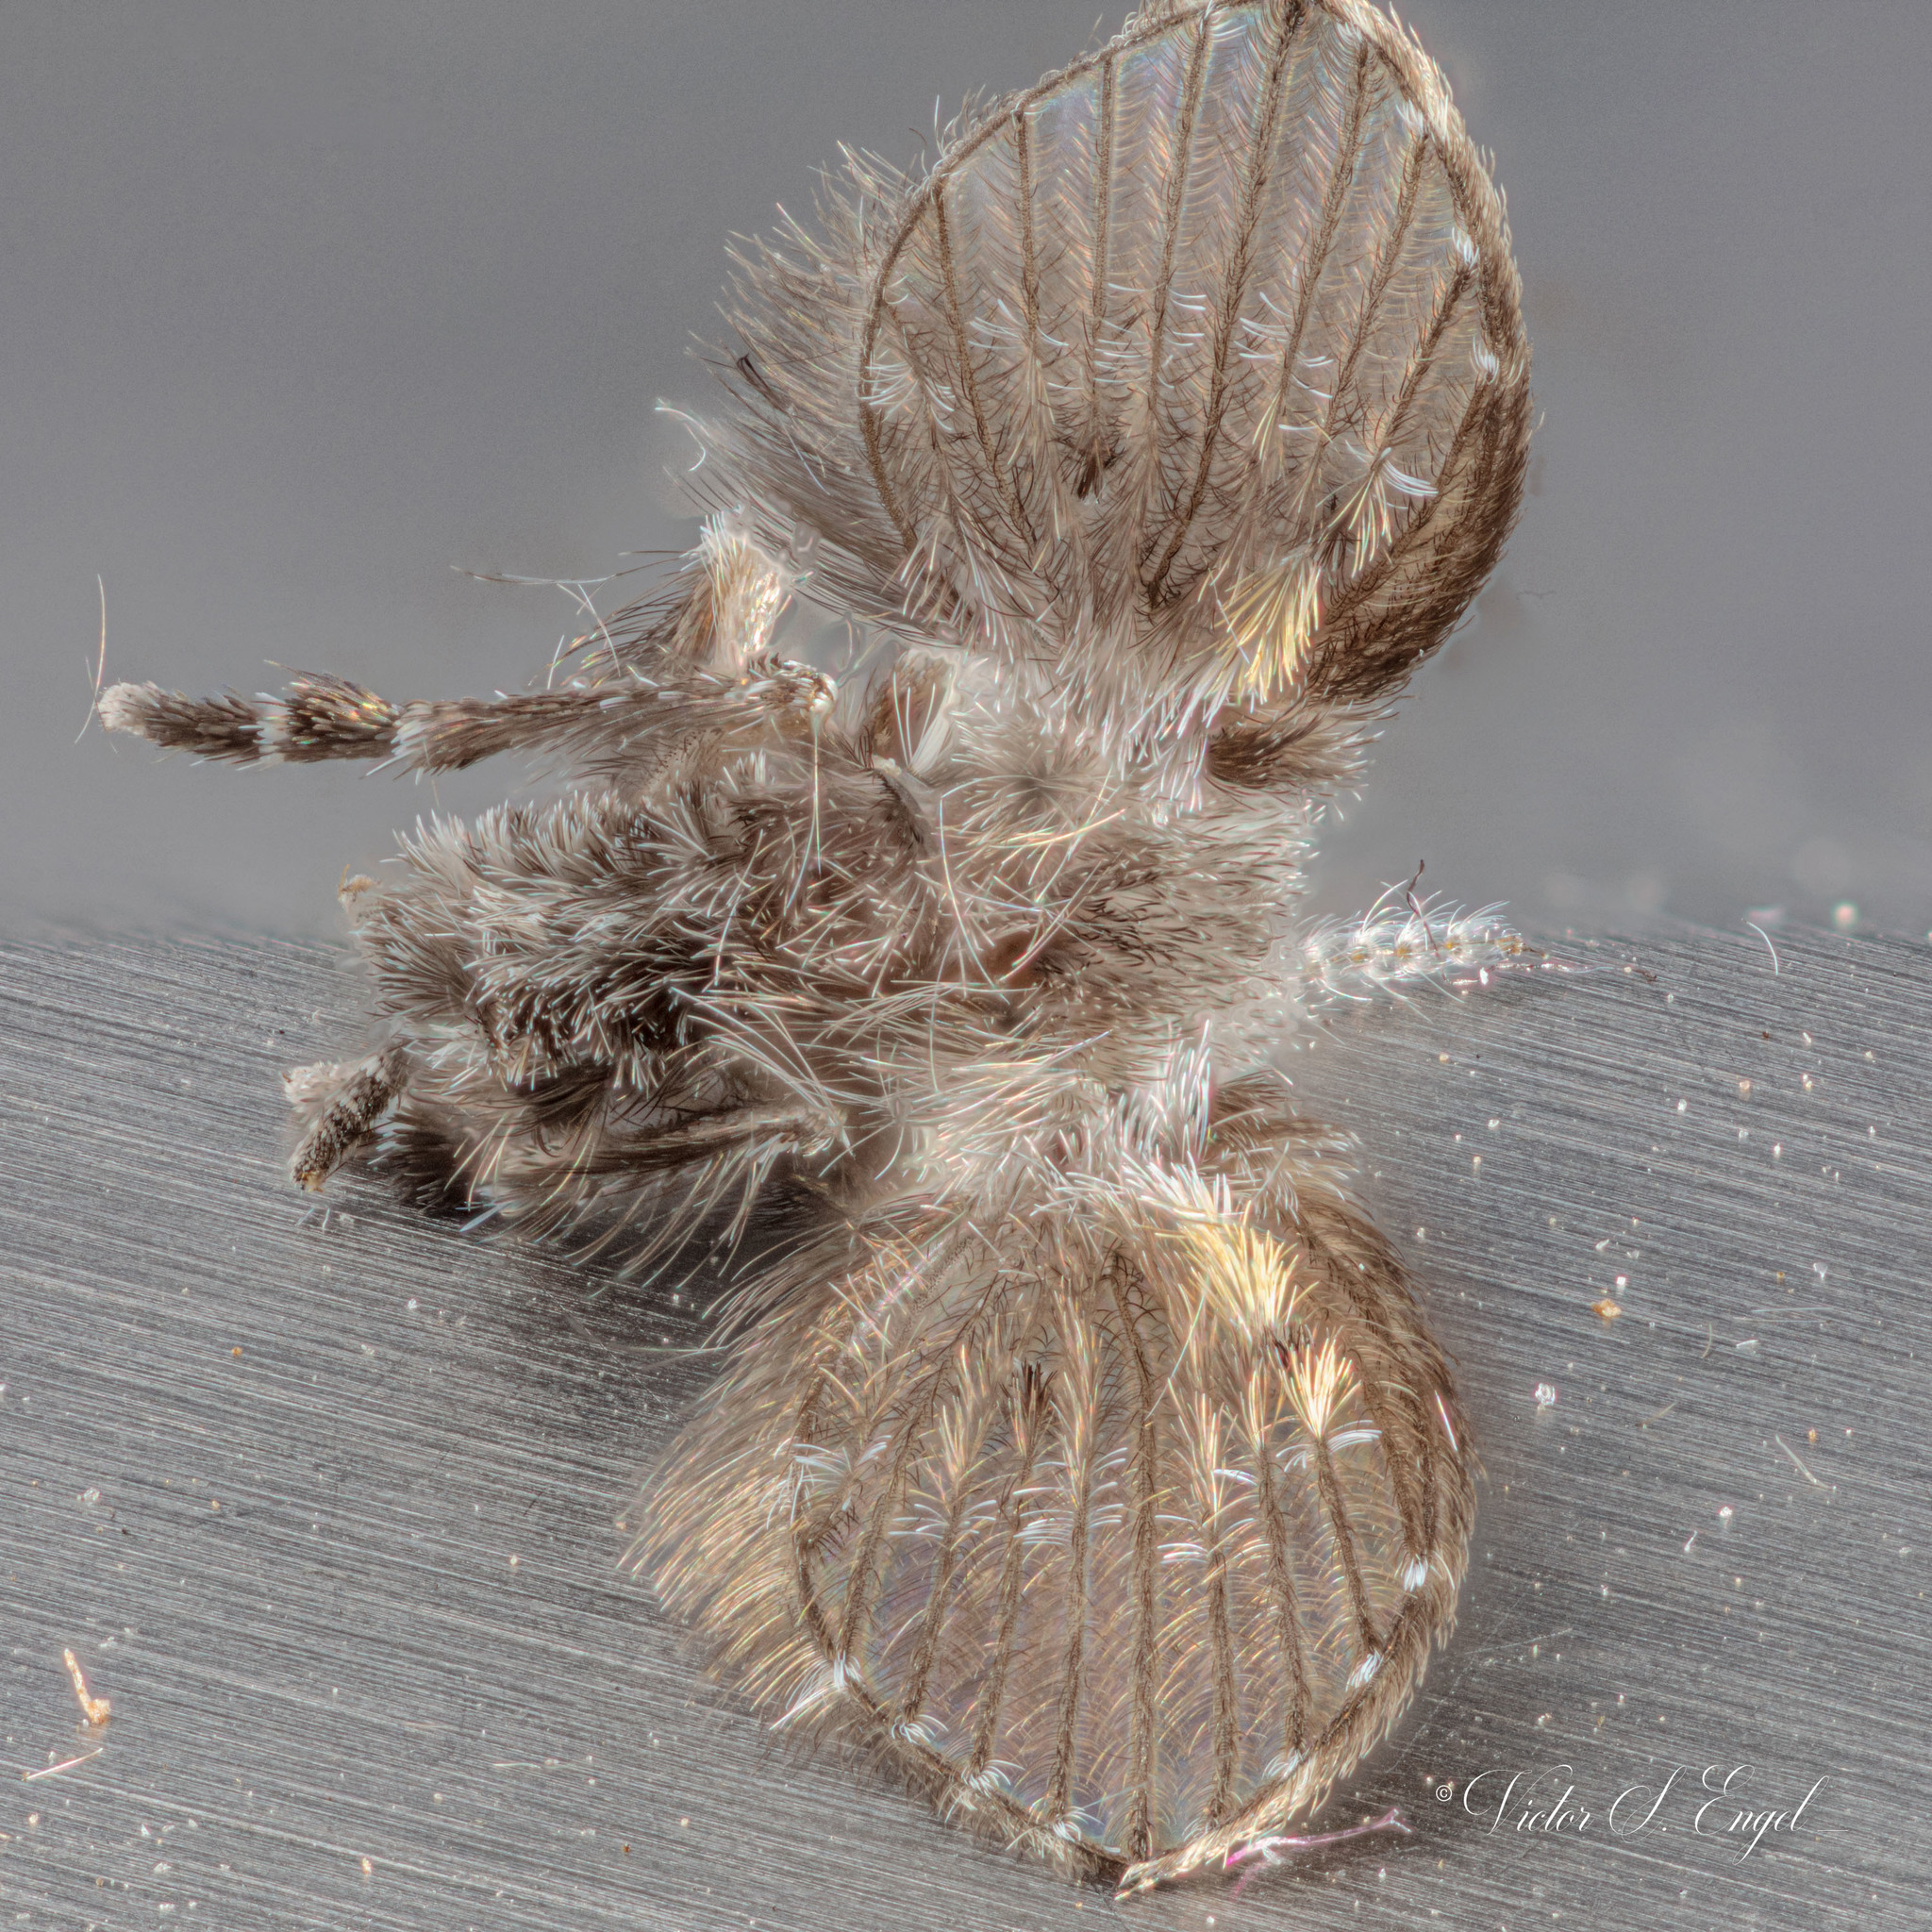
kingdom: Animalia
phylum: Arthropoda
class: Insecta
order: Diptera
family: Psychodidae
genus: Clogmia
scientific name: Clogmia albipunctatus
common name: White-spotted moth fly
